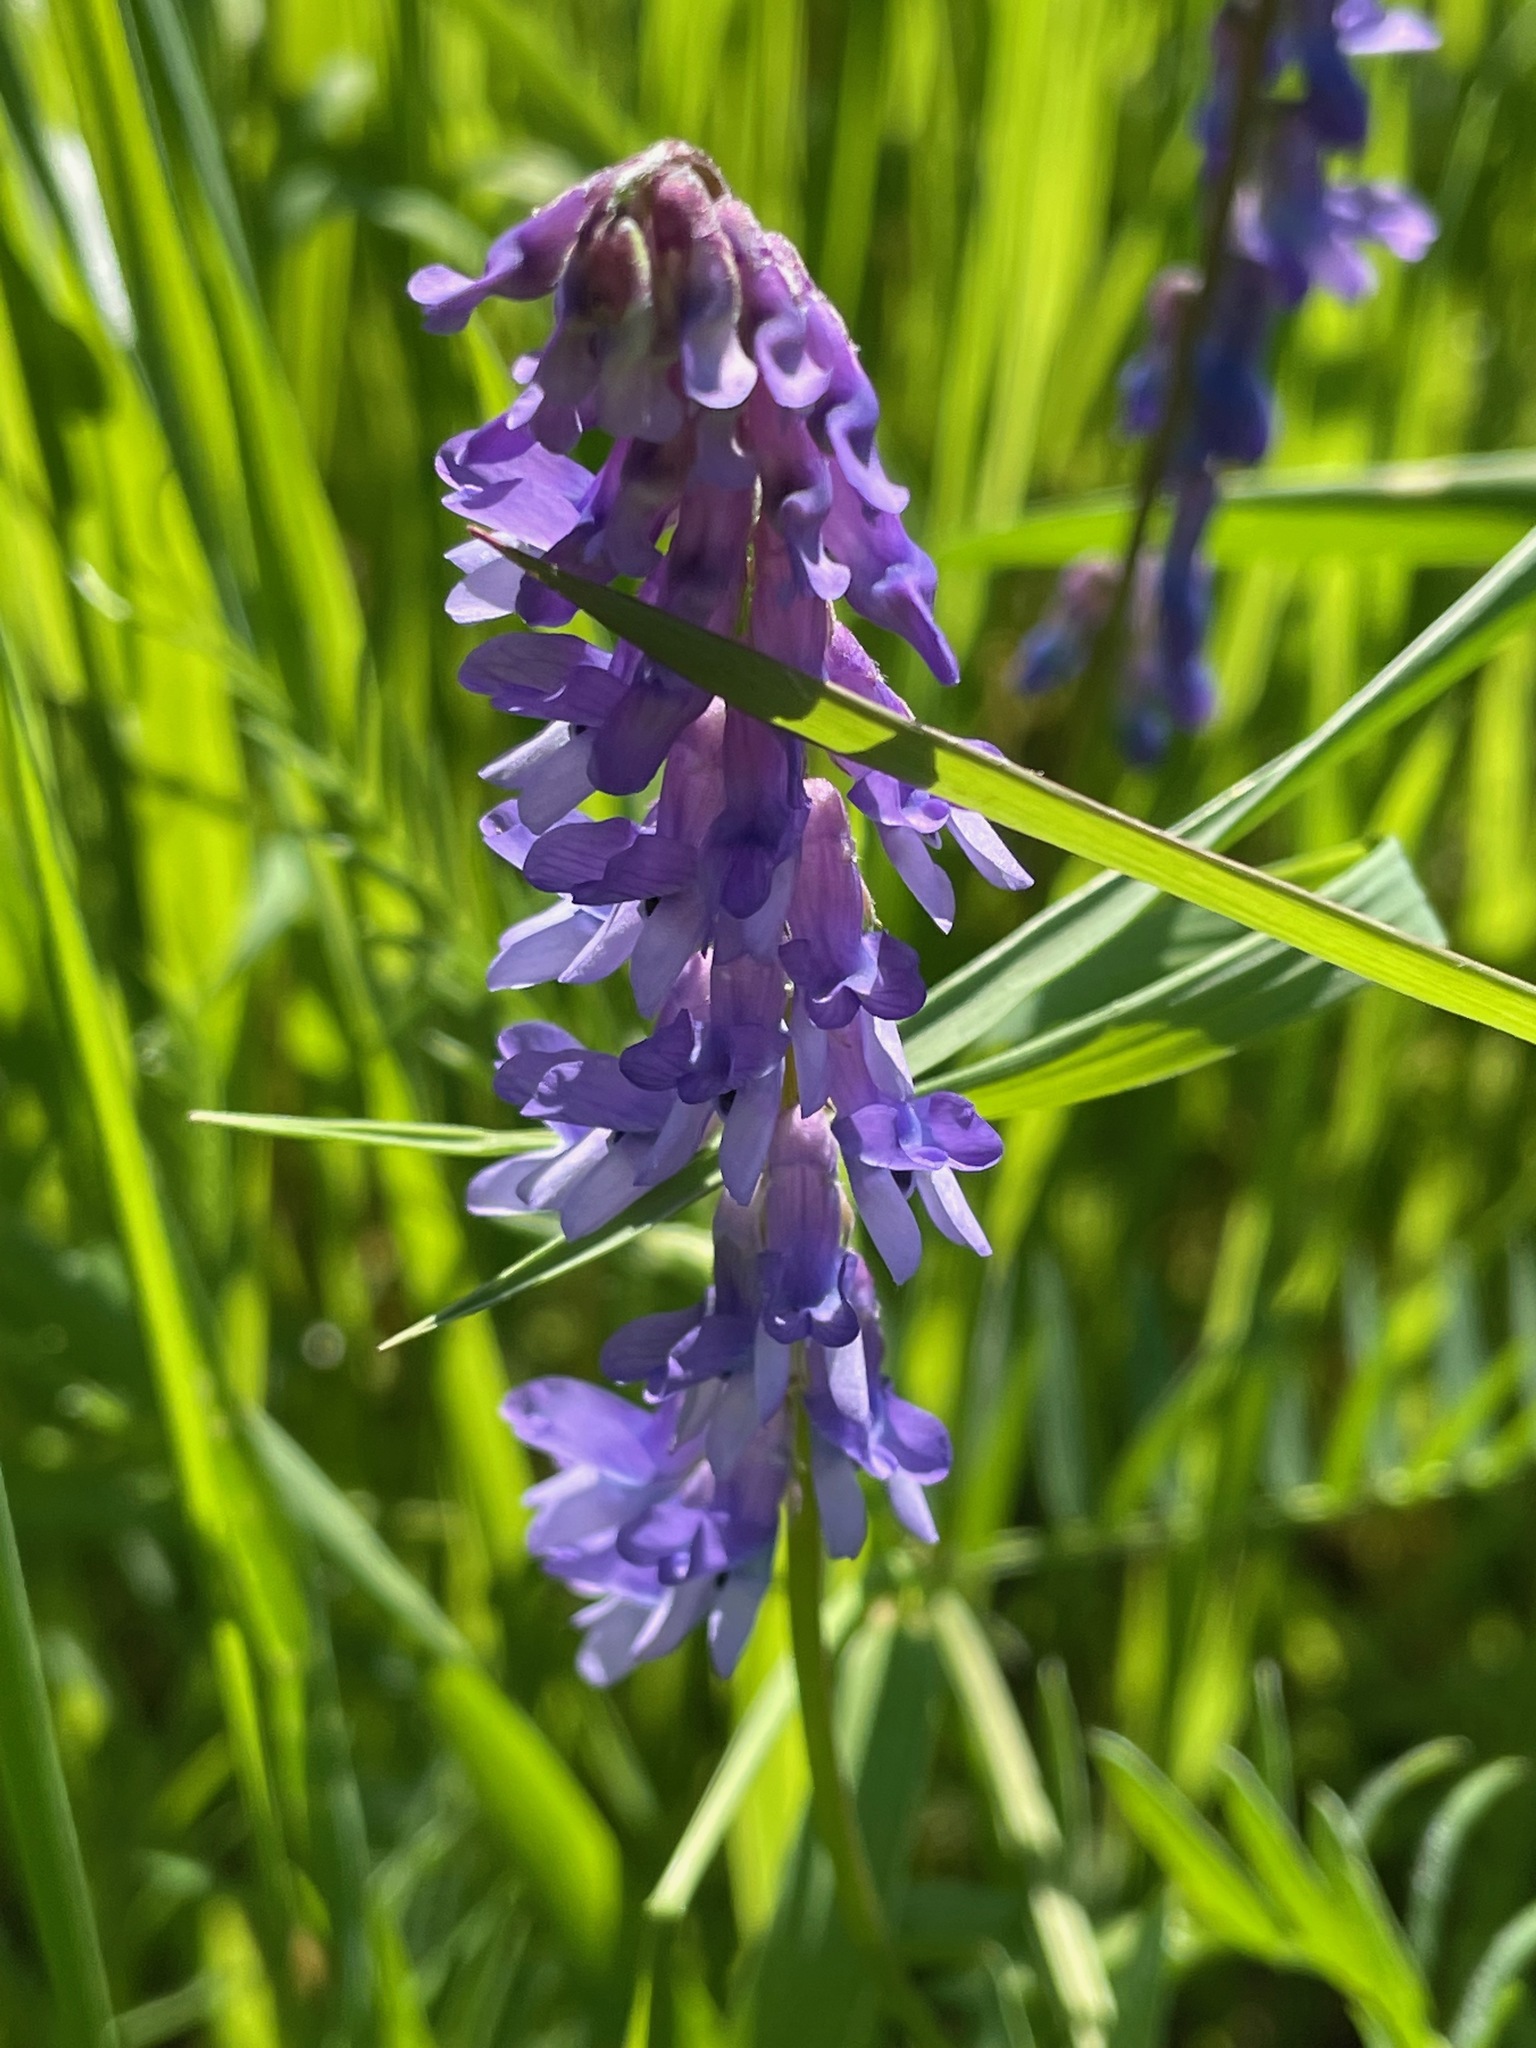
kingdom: Plantae
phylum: Tracheophyta
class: Magnoliopsida
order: Fabales
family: Fabaceae
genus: Vicia
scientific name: Vicia cracca
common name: Bird vetch
